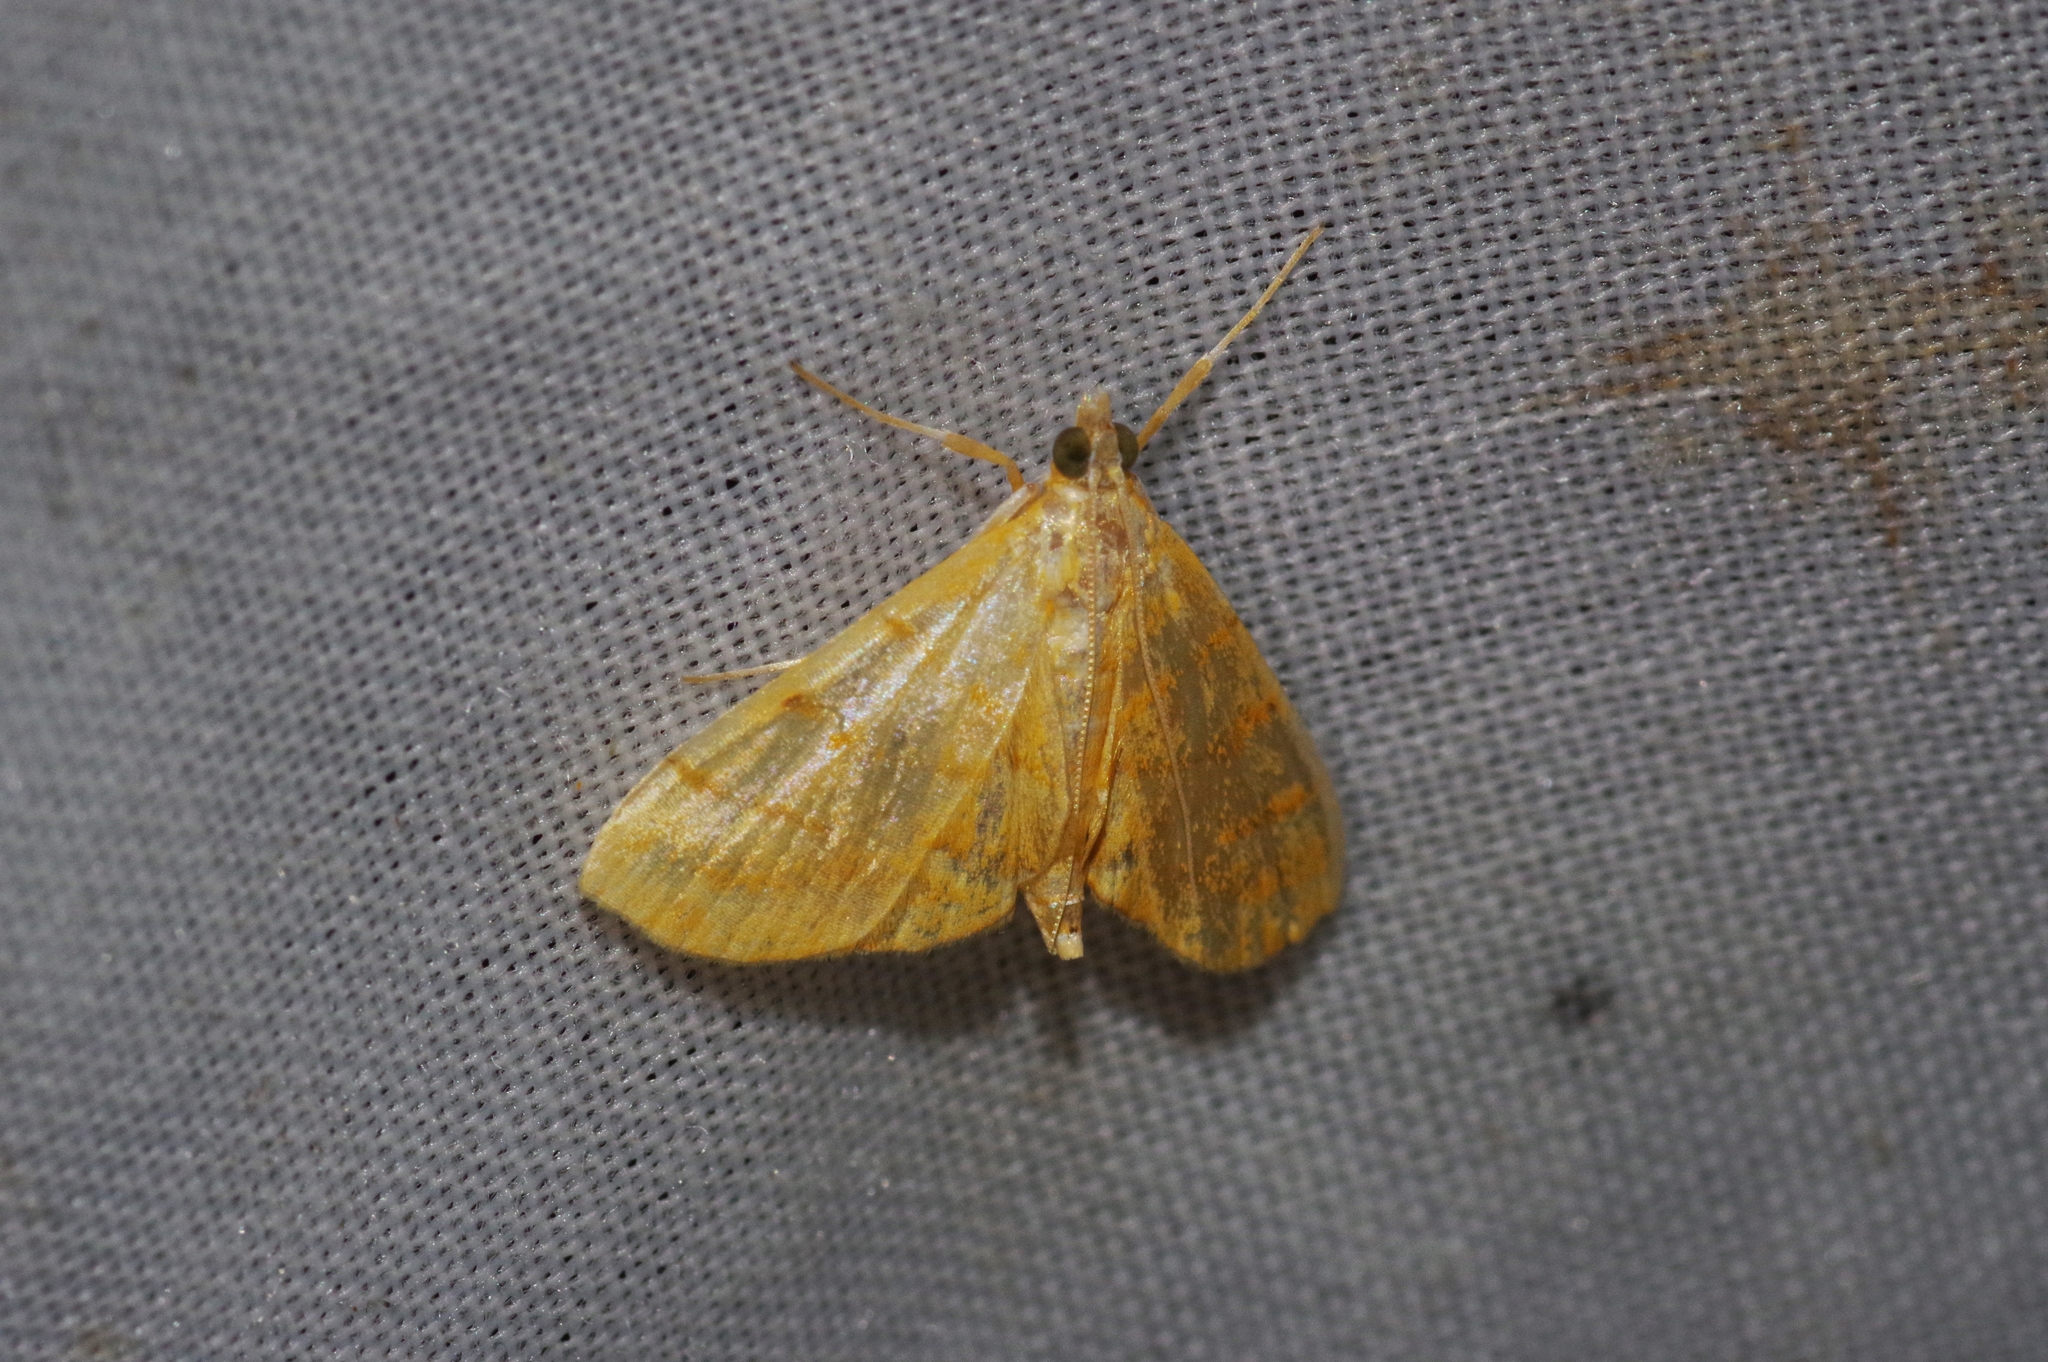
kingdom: Animalia
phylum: Arthropoda
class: Insecta
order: Lepidoptera
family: Crambidae
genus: Pagyda
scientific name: Pagyda quinquelineata
